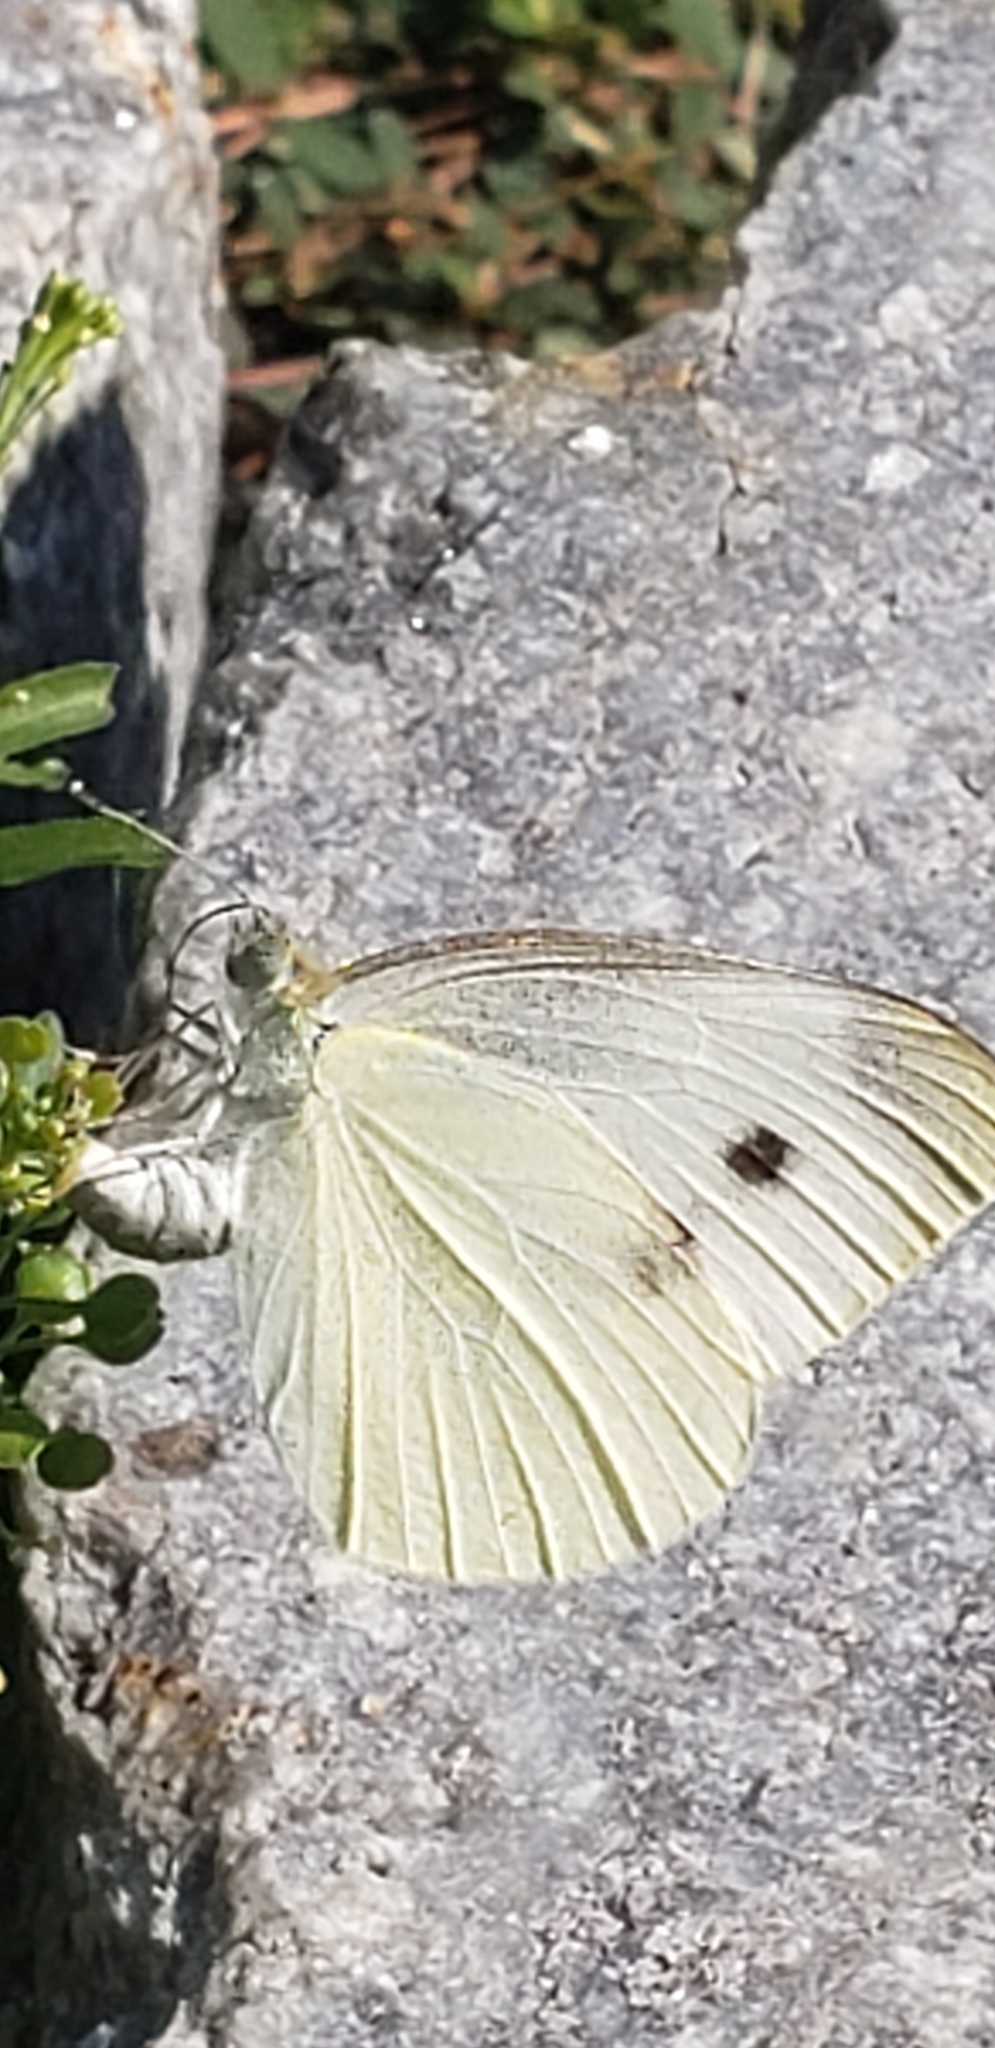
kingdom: Animalia
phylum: Arthropoda
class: Insecta
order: Lepidoptera
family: Pieridae
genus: Pieris
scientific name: Pieris rapae
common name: Small white
